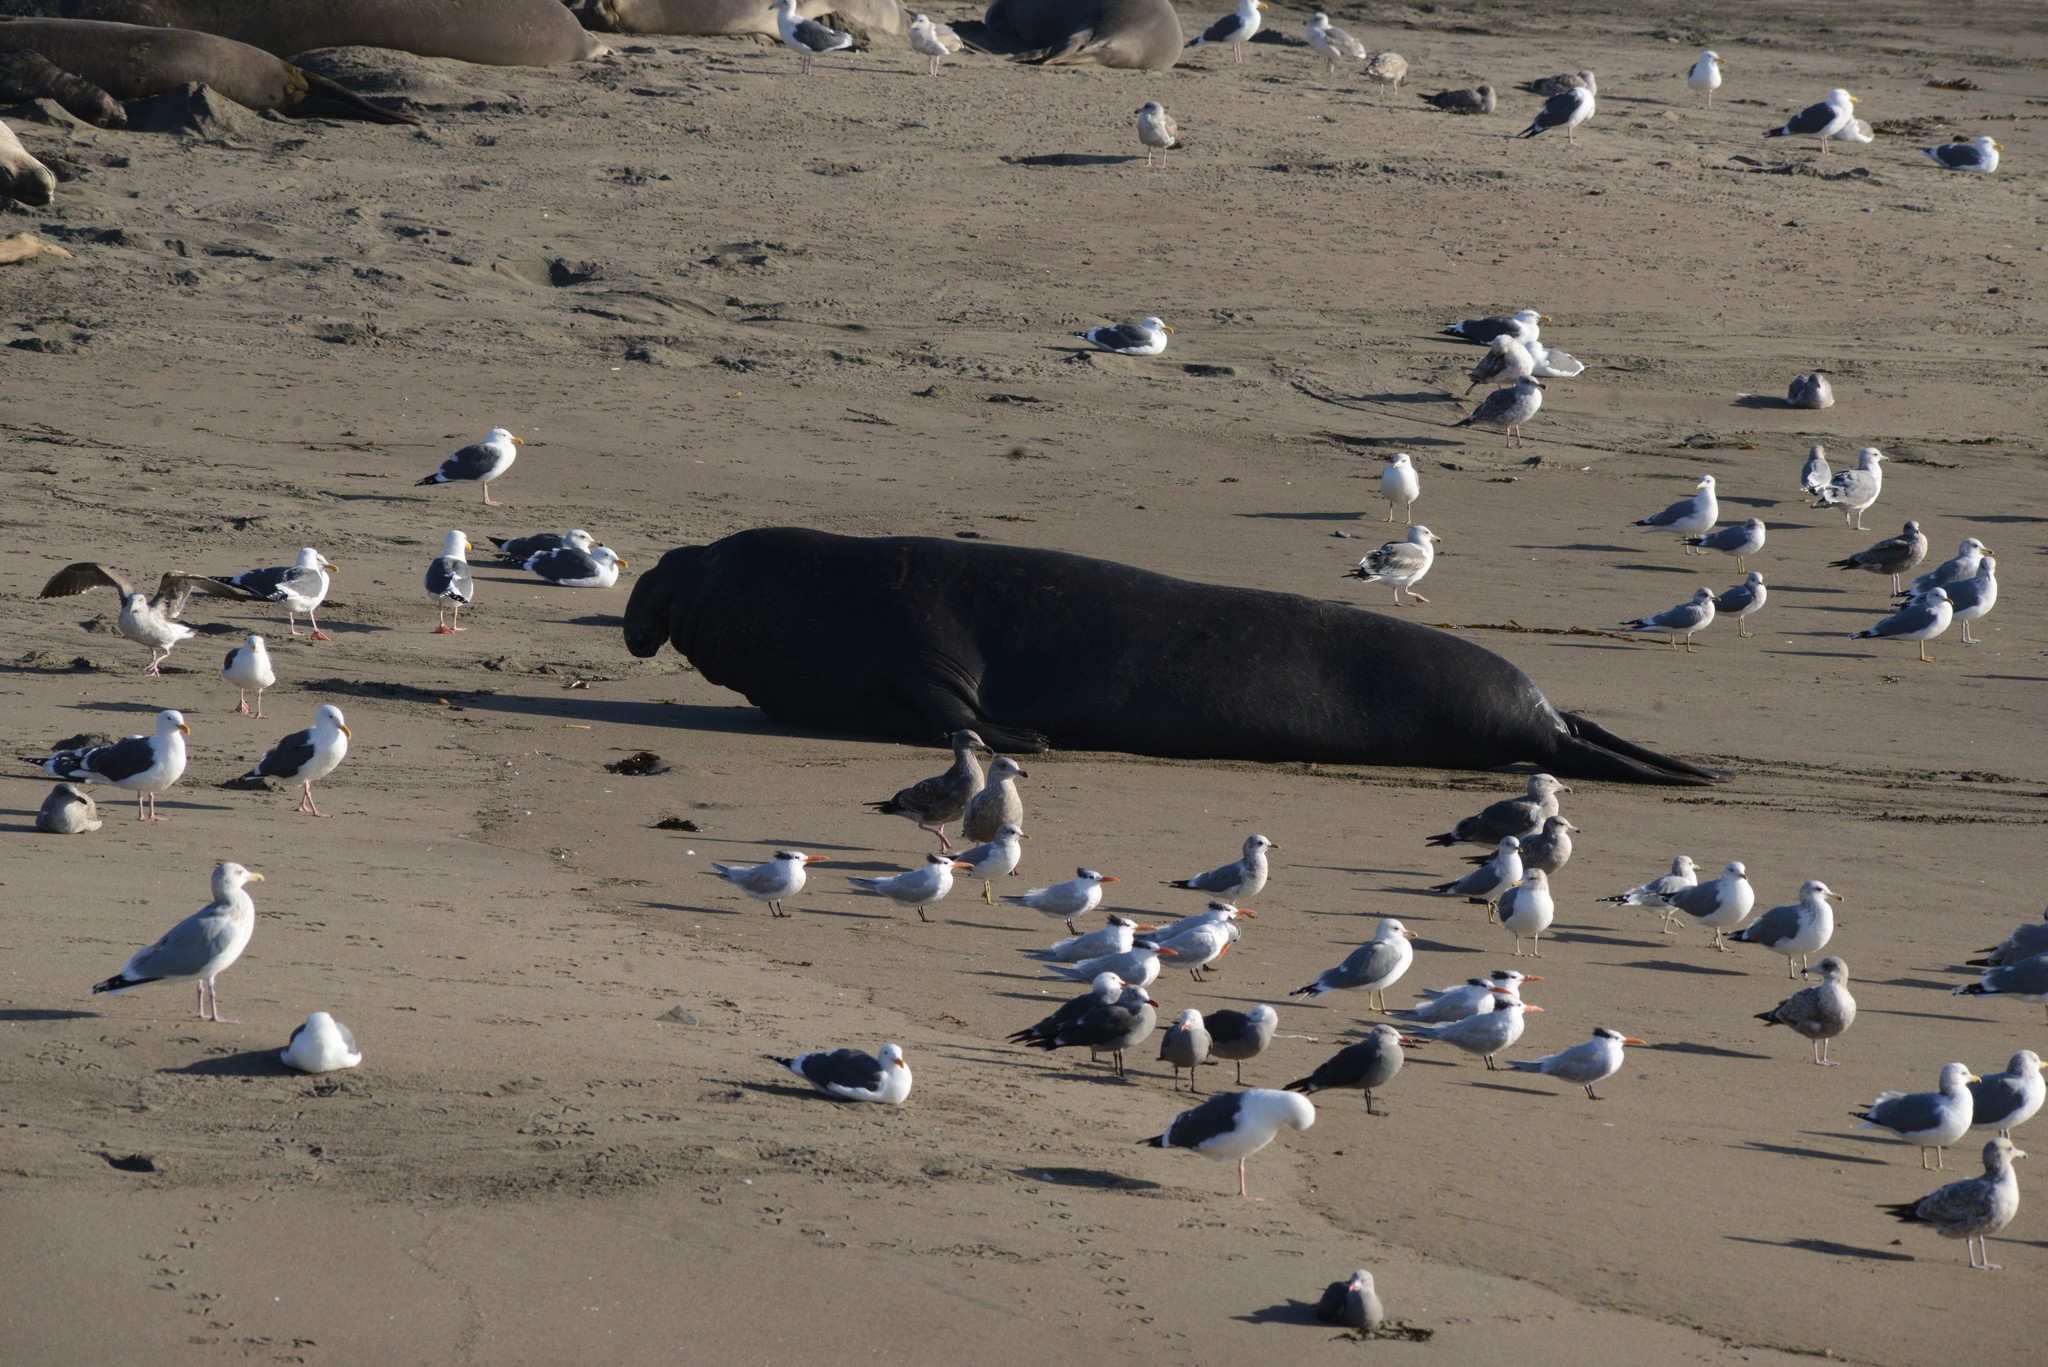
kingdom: Animalia
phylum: Chordata
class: Mammalia
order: Carnivora
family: Phocidae
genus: Mirounga
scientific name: Mirounga angustirostris
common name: Northern elephant seal
